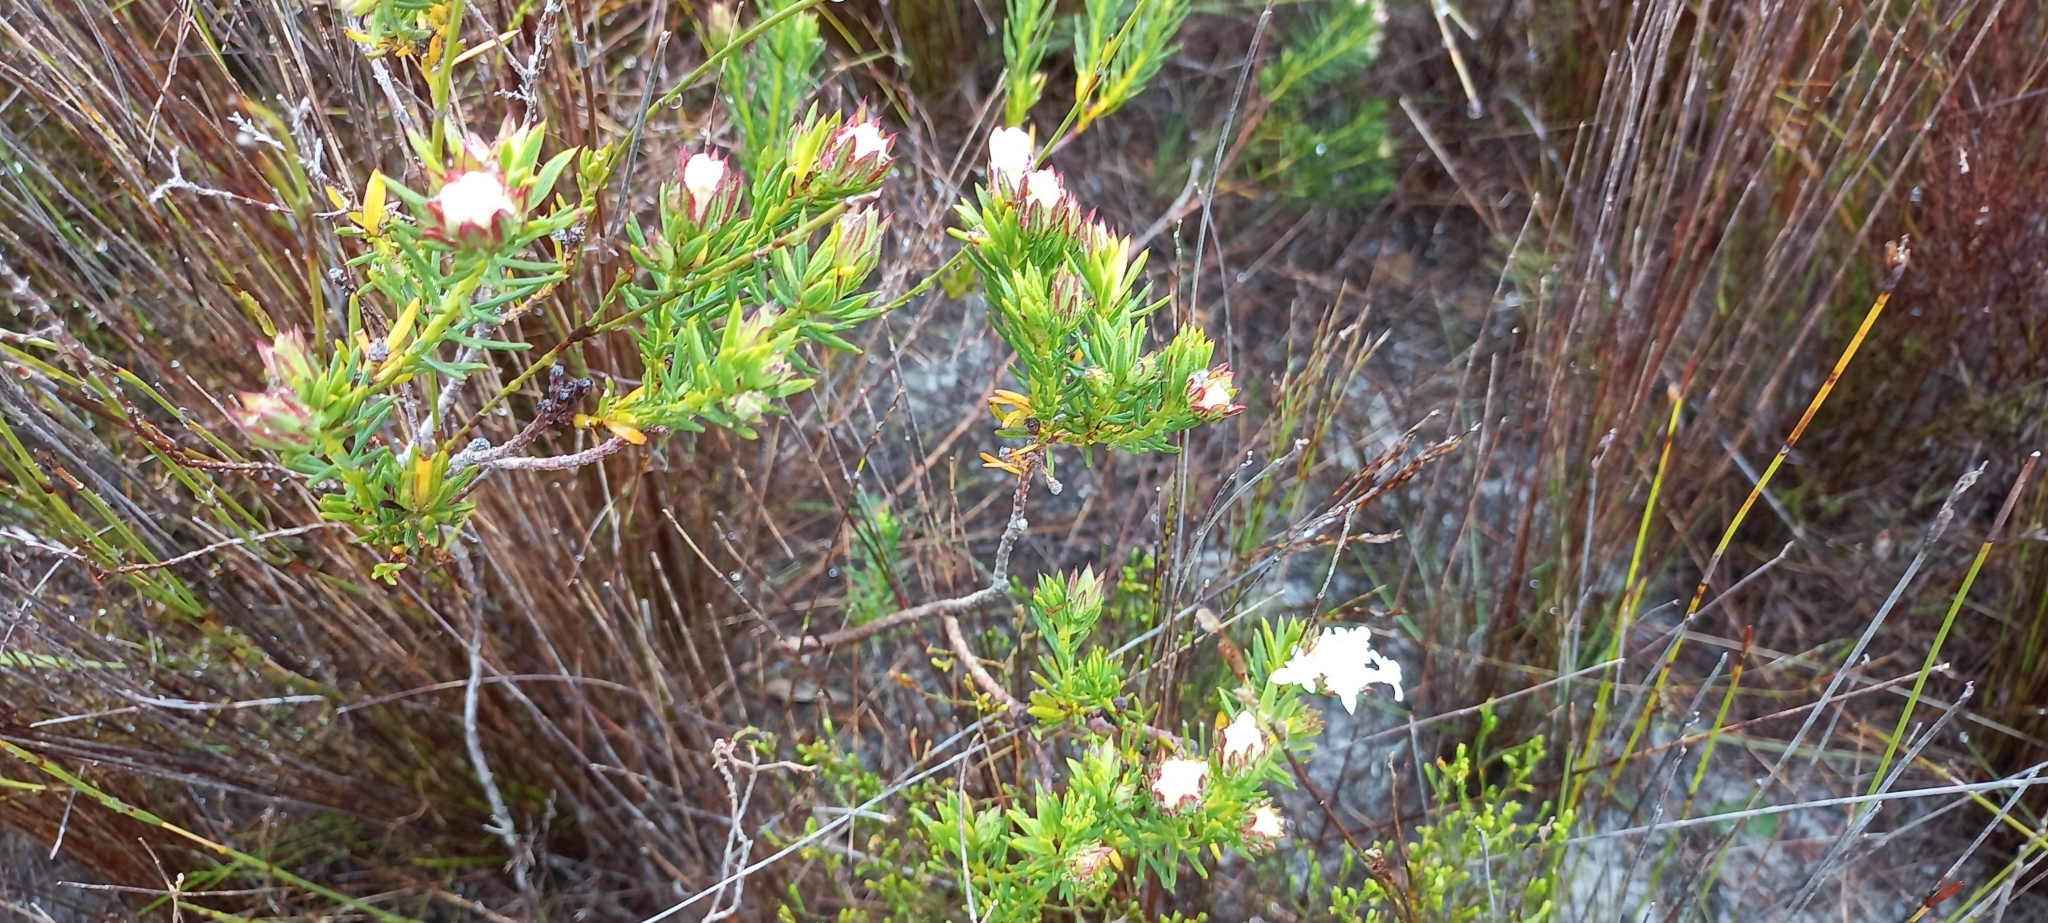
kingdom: Plantae
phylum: Tracheophyta
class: Magnoliopsida
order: Malvales
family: Thymelaeaceae
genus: Gnidia
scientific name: Gnidia pinifolia
